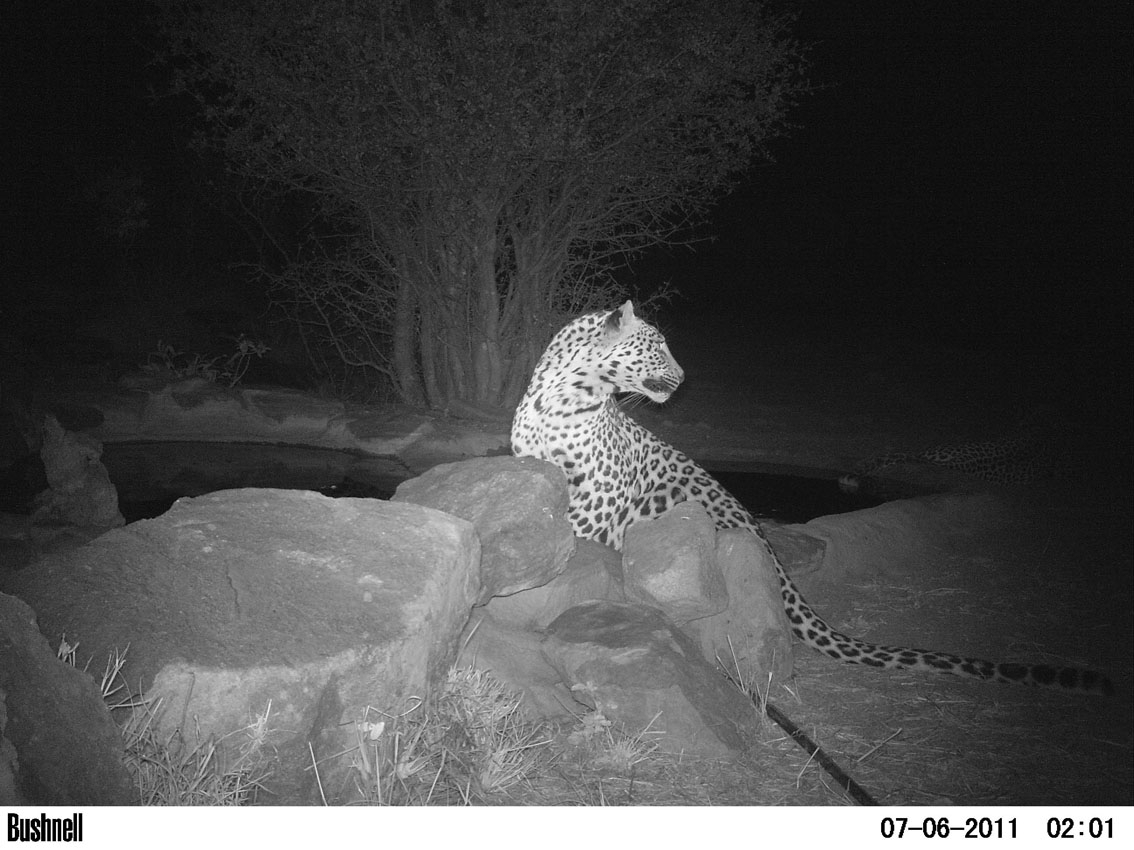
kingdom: Animalia
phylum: Chordata
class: Mammalia
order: Carnivora
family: Felidae
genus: Panthera
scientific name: Panthera pardus
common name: Leopard
